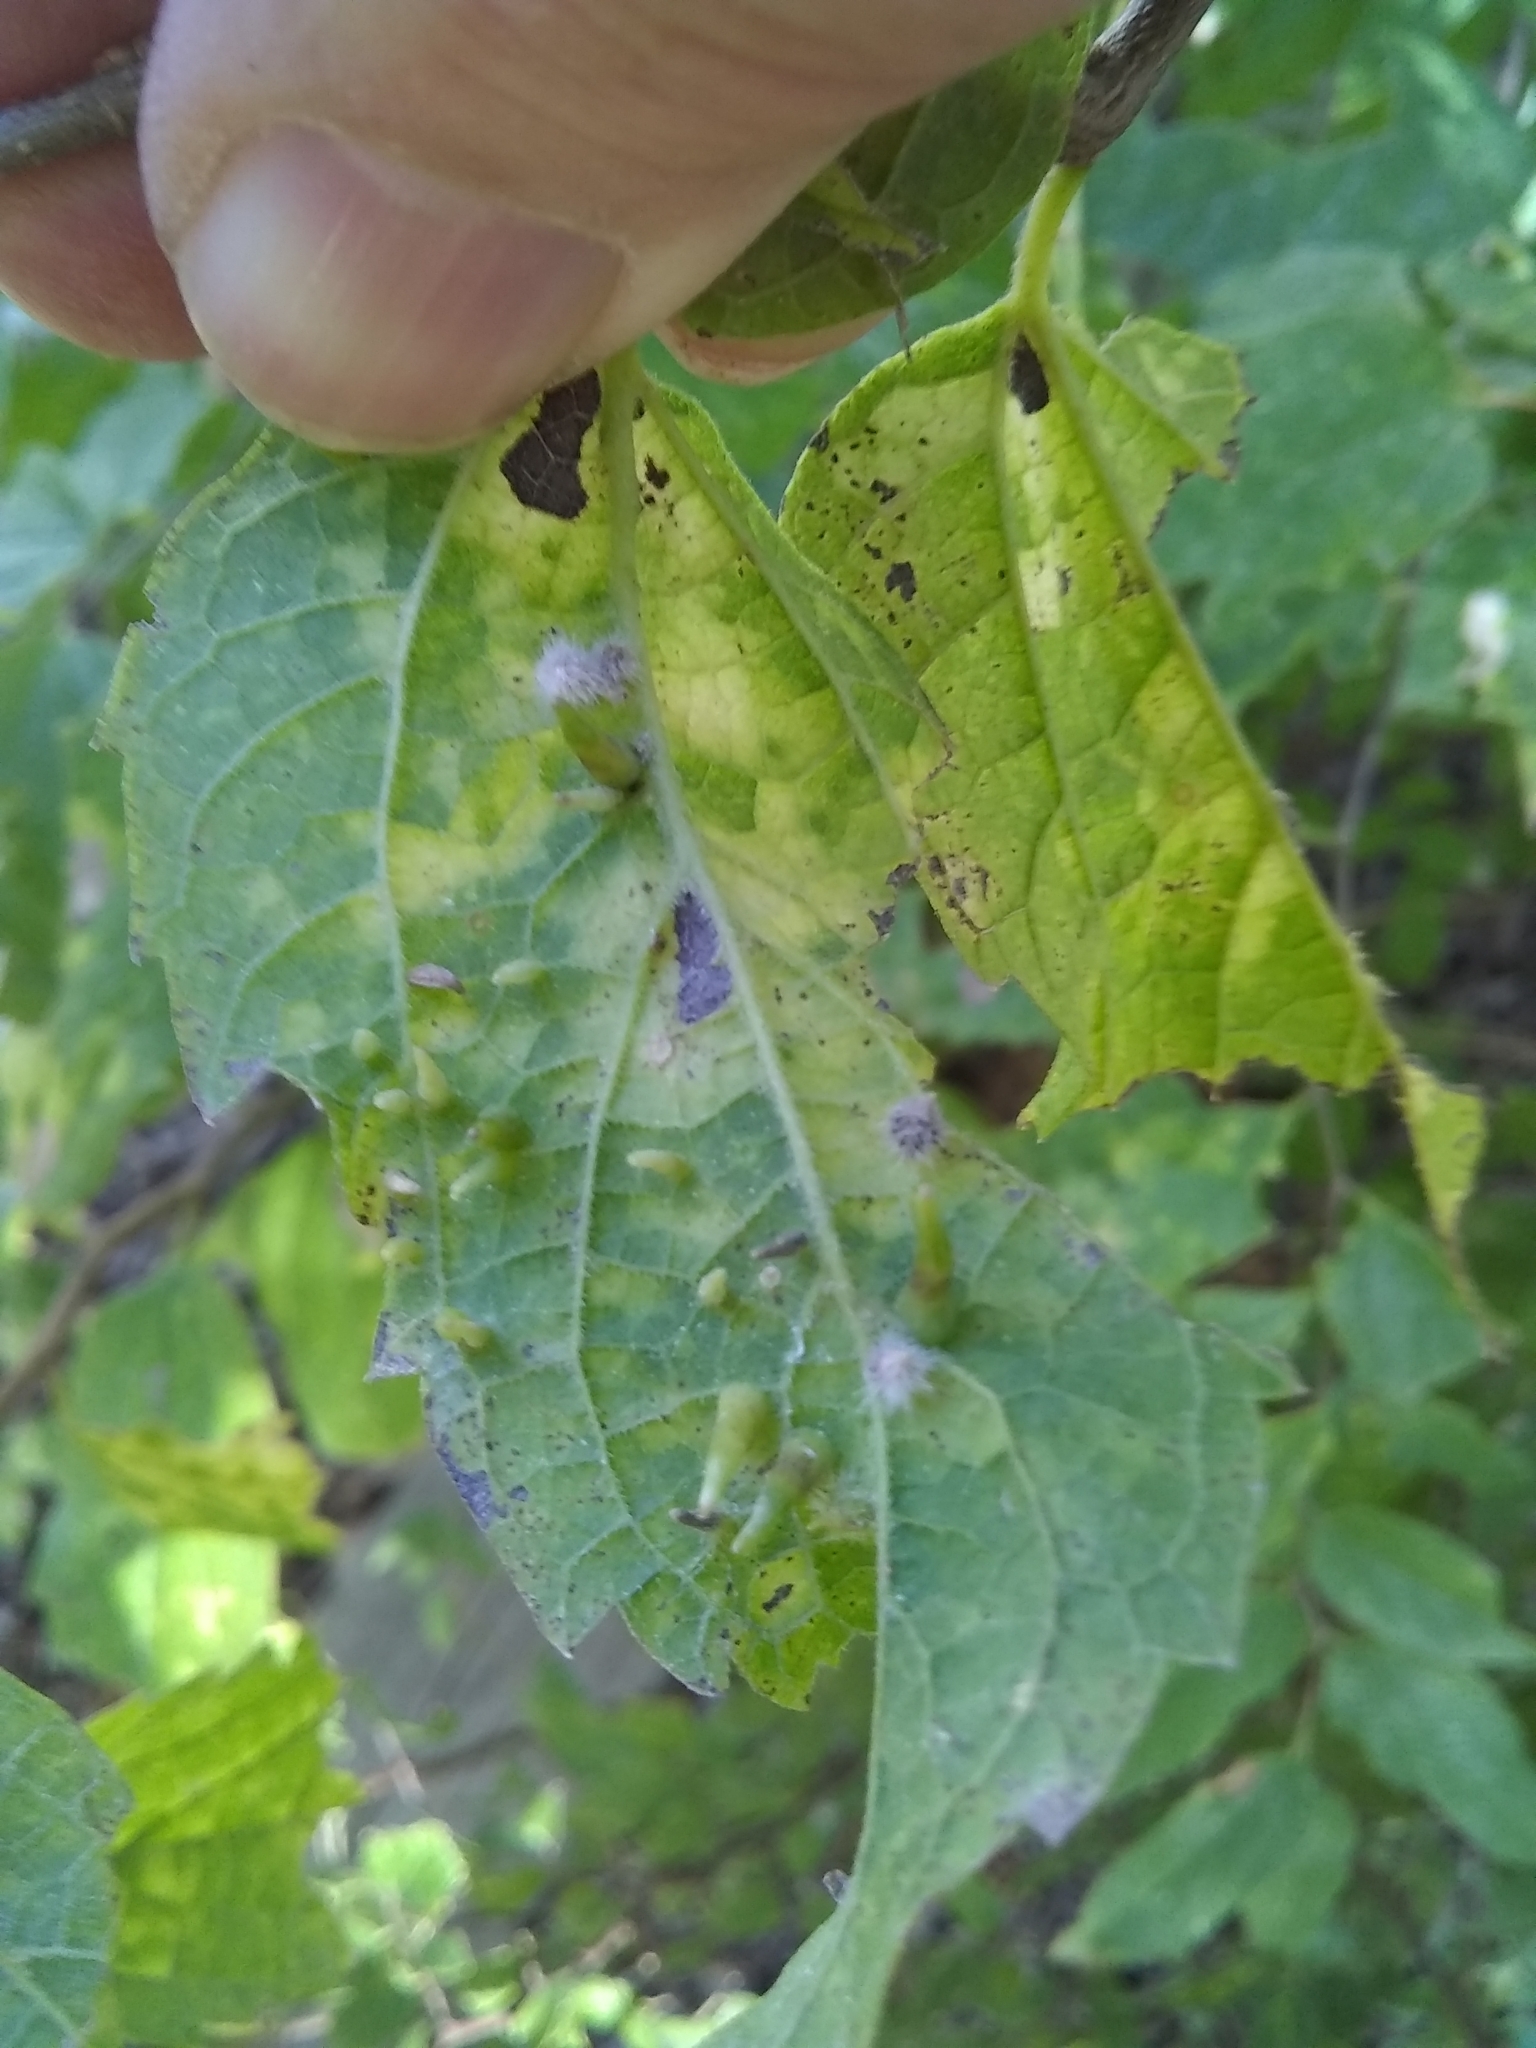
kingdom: Animalia
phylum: Arthropoda
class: Insecta
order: Diptera
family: Cecidomyiidae
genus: Celticecis
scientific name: Celticecis subulata
